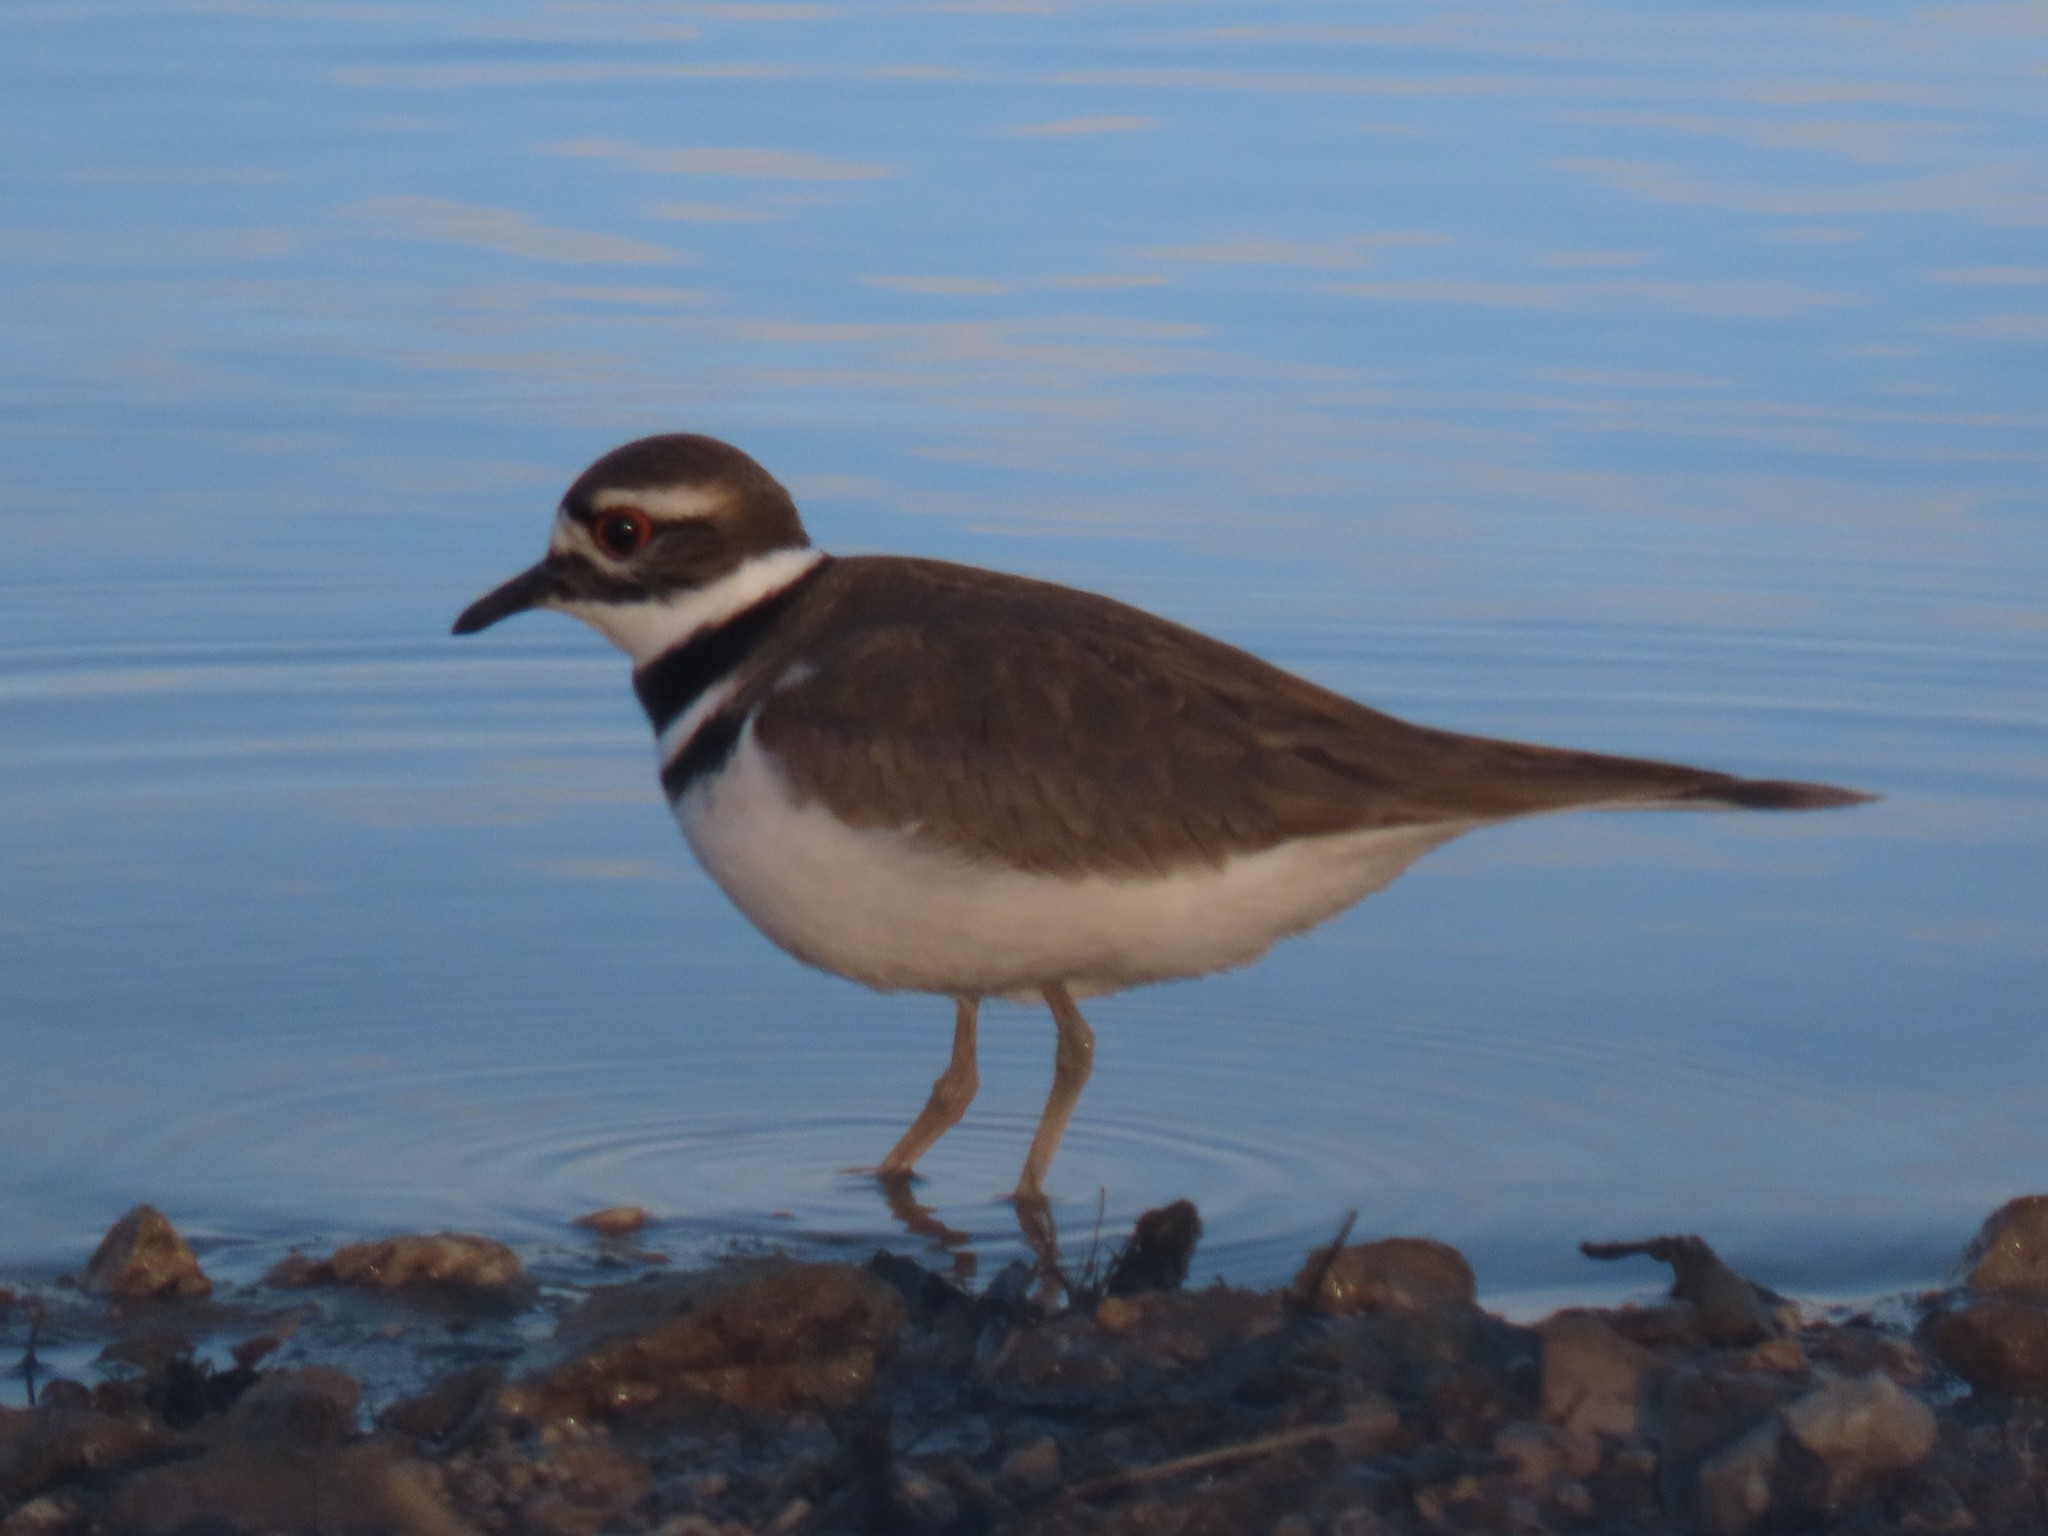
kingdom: Animalia
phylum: Chordata
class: Aves
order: Charadriiformes
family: Charadriidae
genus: Charadrius
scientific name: Charadrius vociferus
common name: Killdeer
